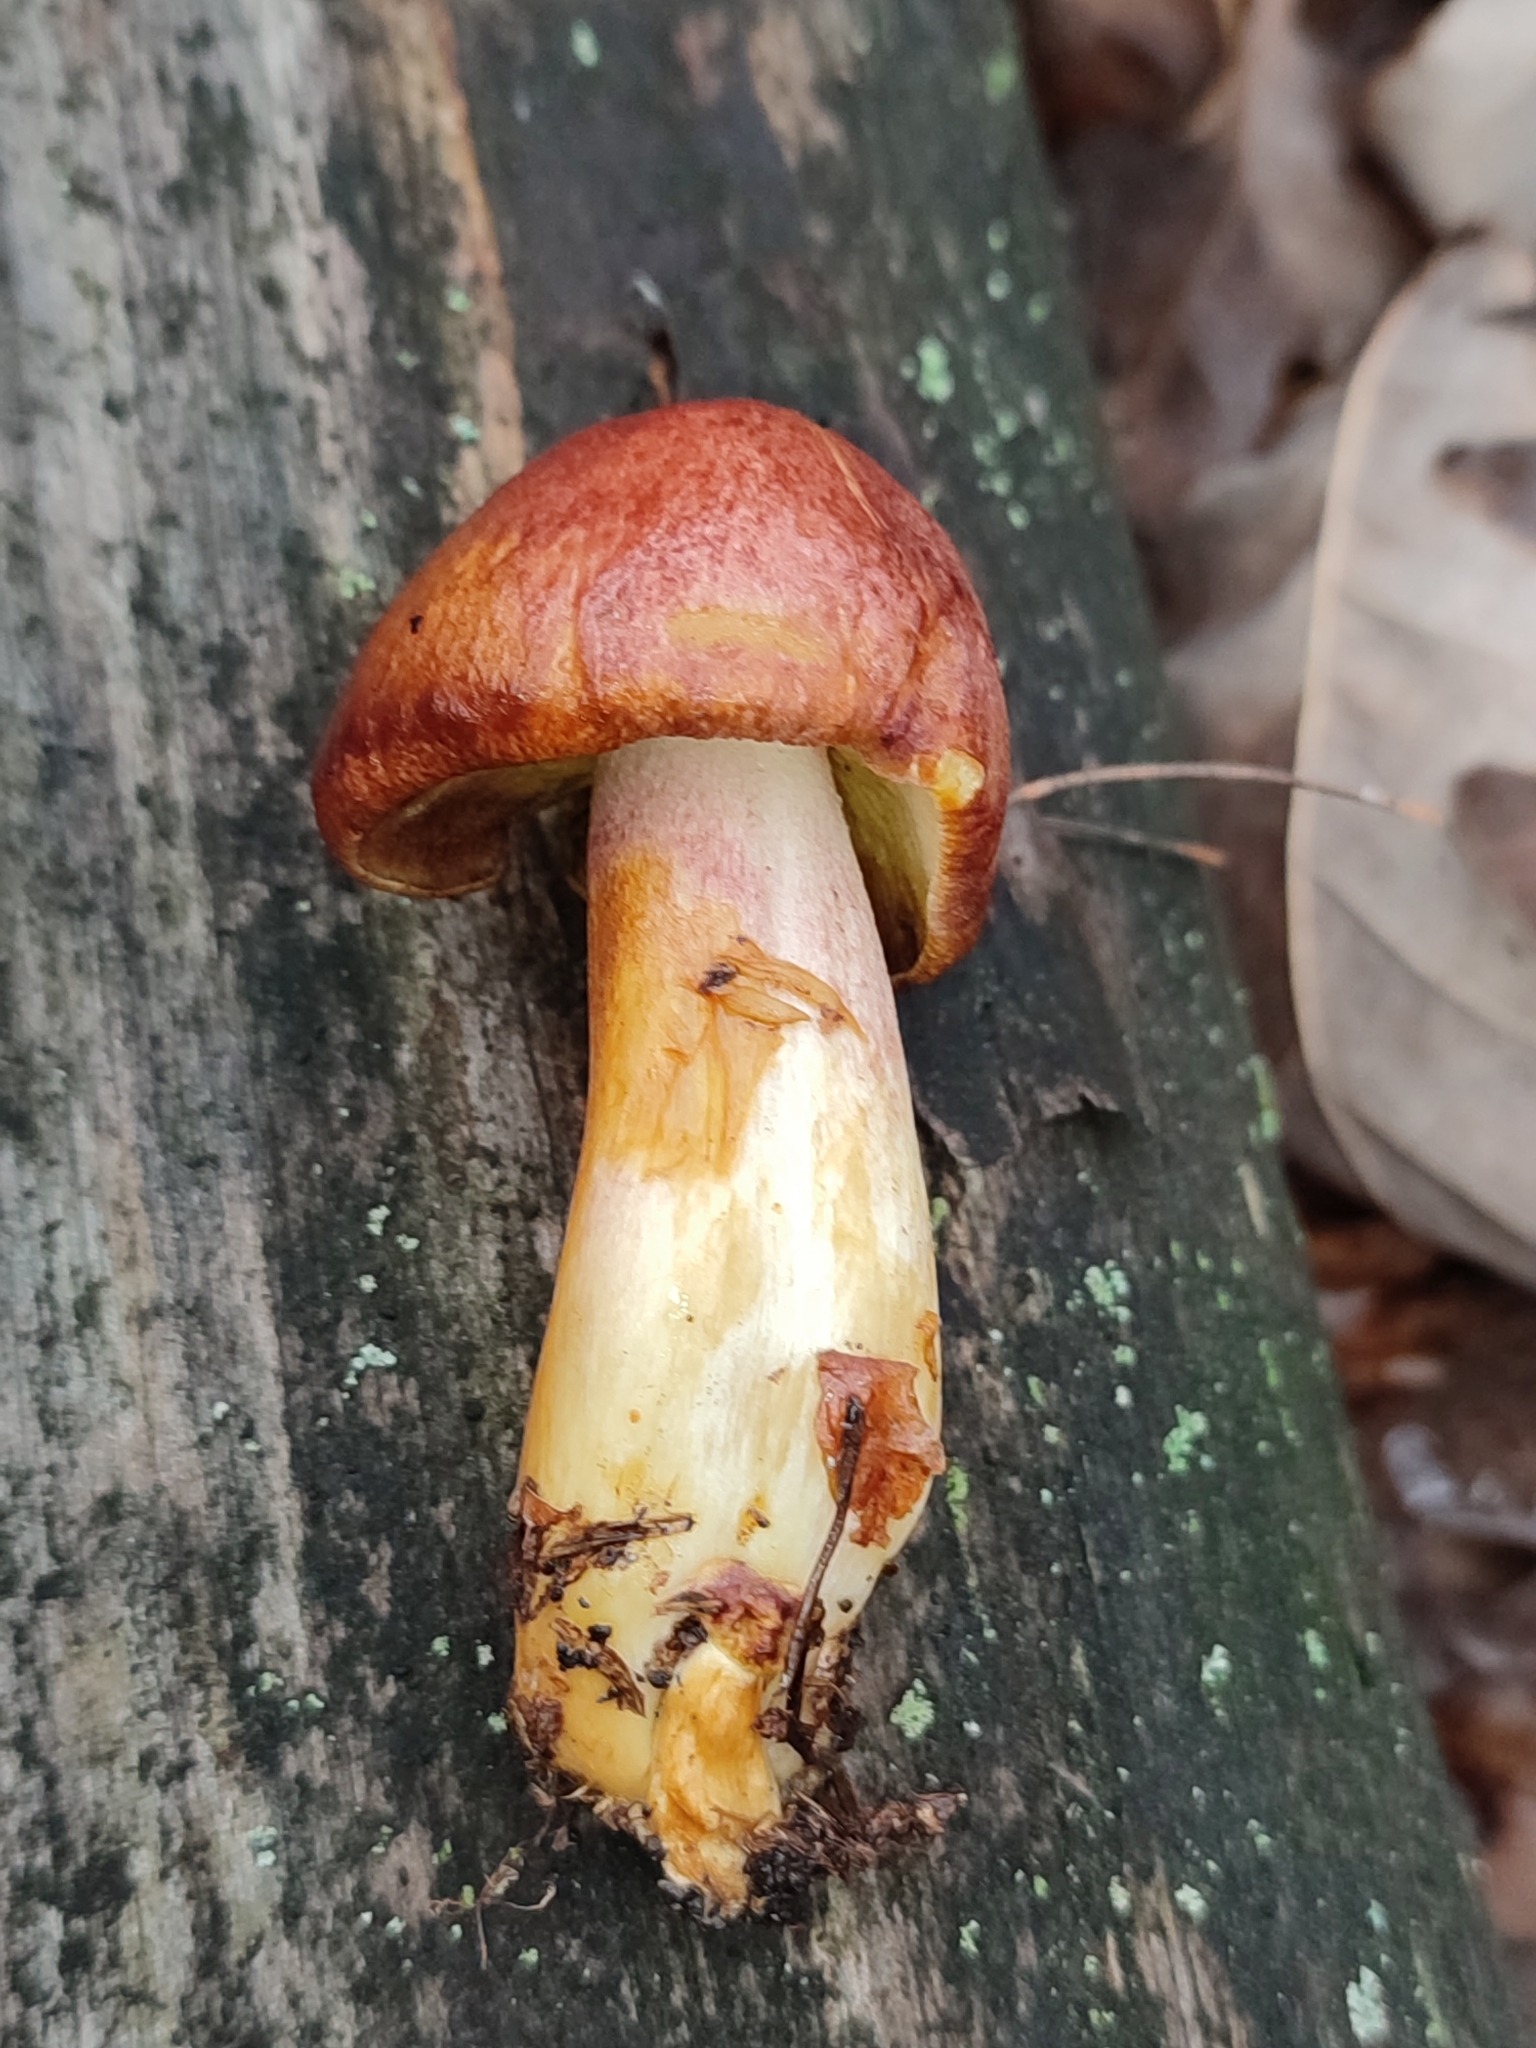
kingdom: Fungi
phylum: Basidiomycota
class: Agaricomycetes
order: Agaricales
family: Tricholomataceae
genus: Tricholomopsis
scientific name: Tricholomopsis rutilans
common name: Plums and custard
